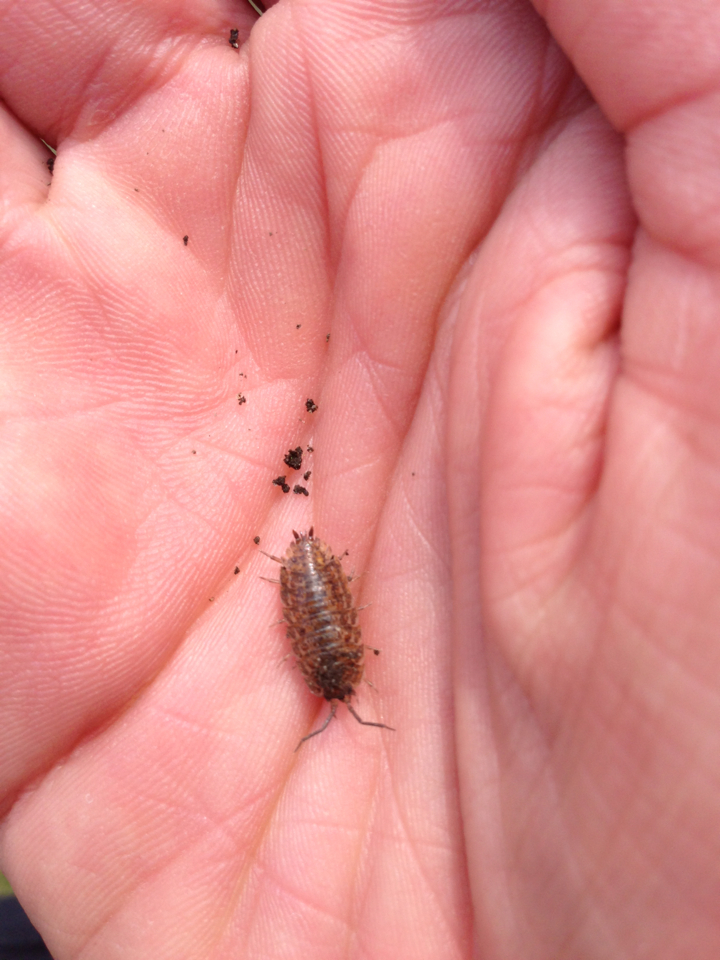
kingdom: Animalia
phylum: Arthropoda
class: Malacostraca
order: Isopoda
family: Trachelipodidae
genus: Trachelipus
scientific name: Trachelipus rathkii
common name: Isopod
